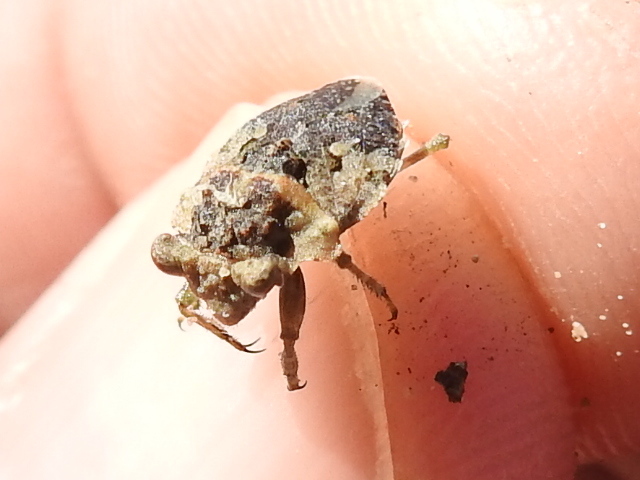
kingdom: Animalia
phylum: Arthropoda
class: Insecta
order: Hemiptera
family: Gelastocoridae
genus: Gelastocoris
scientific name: Gelastocoris oculatus
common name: Toad bug
